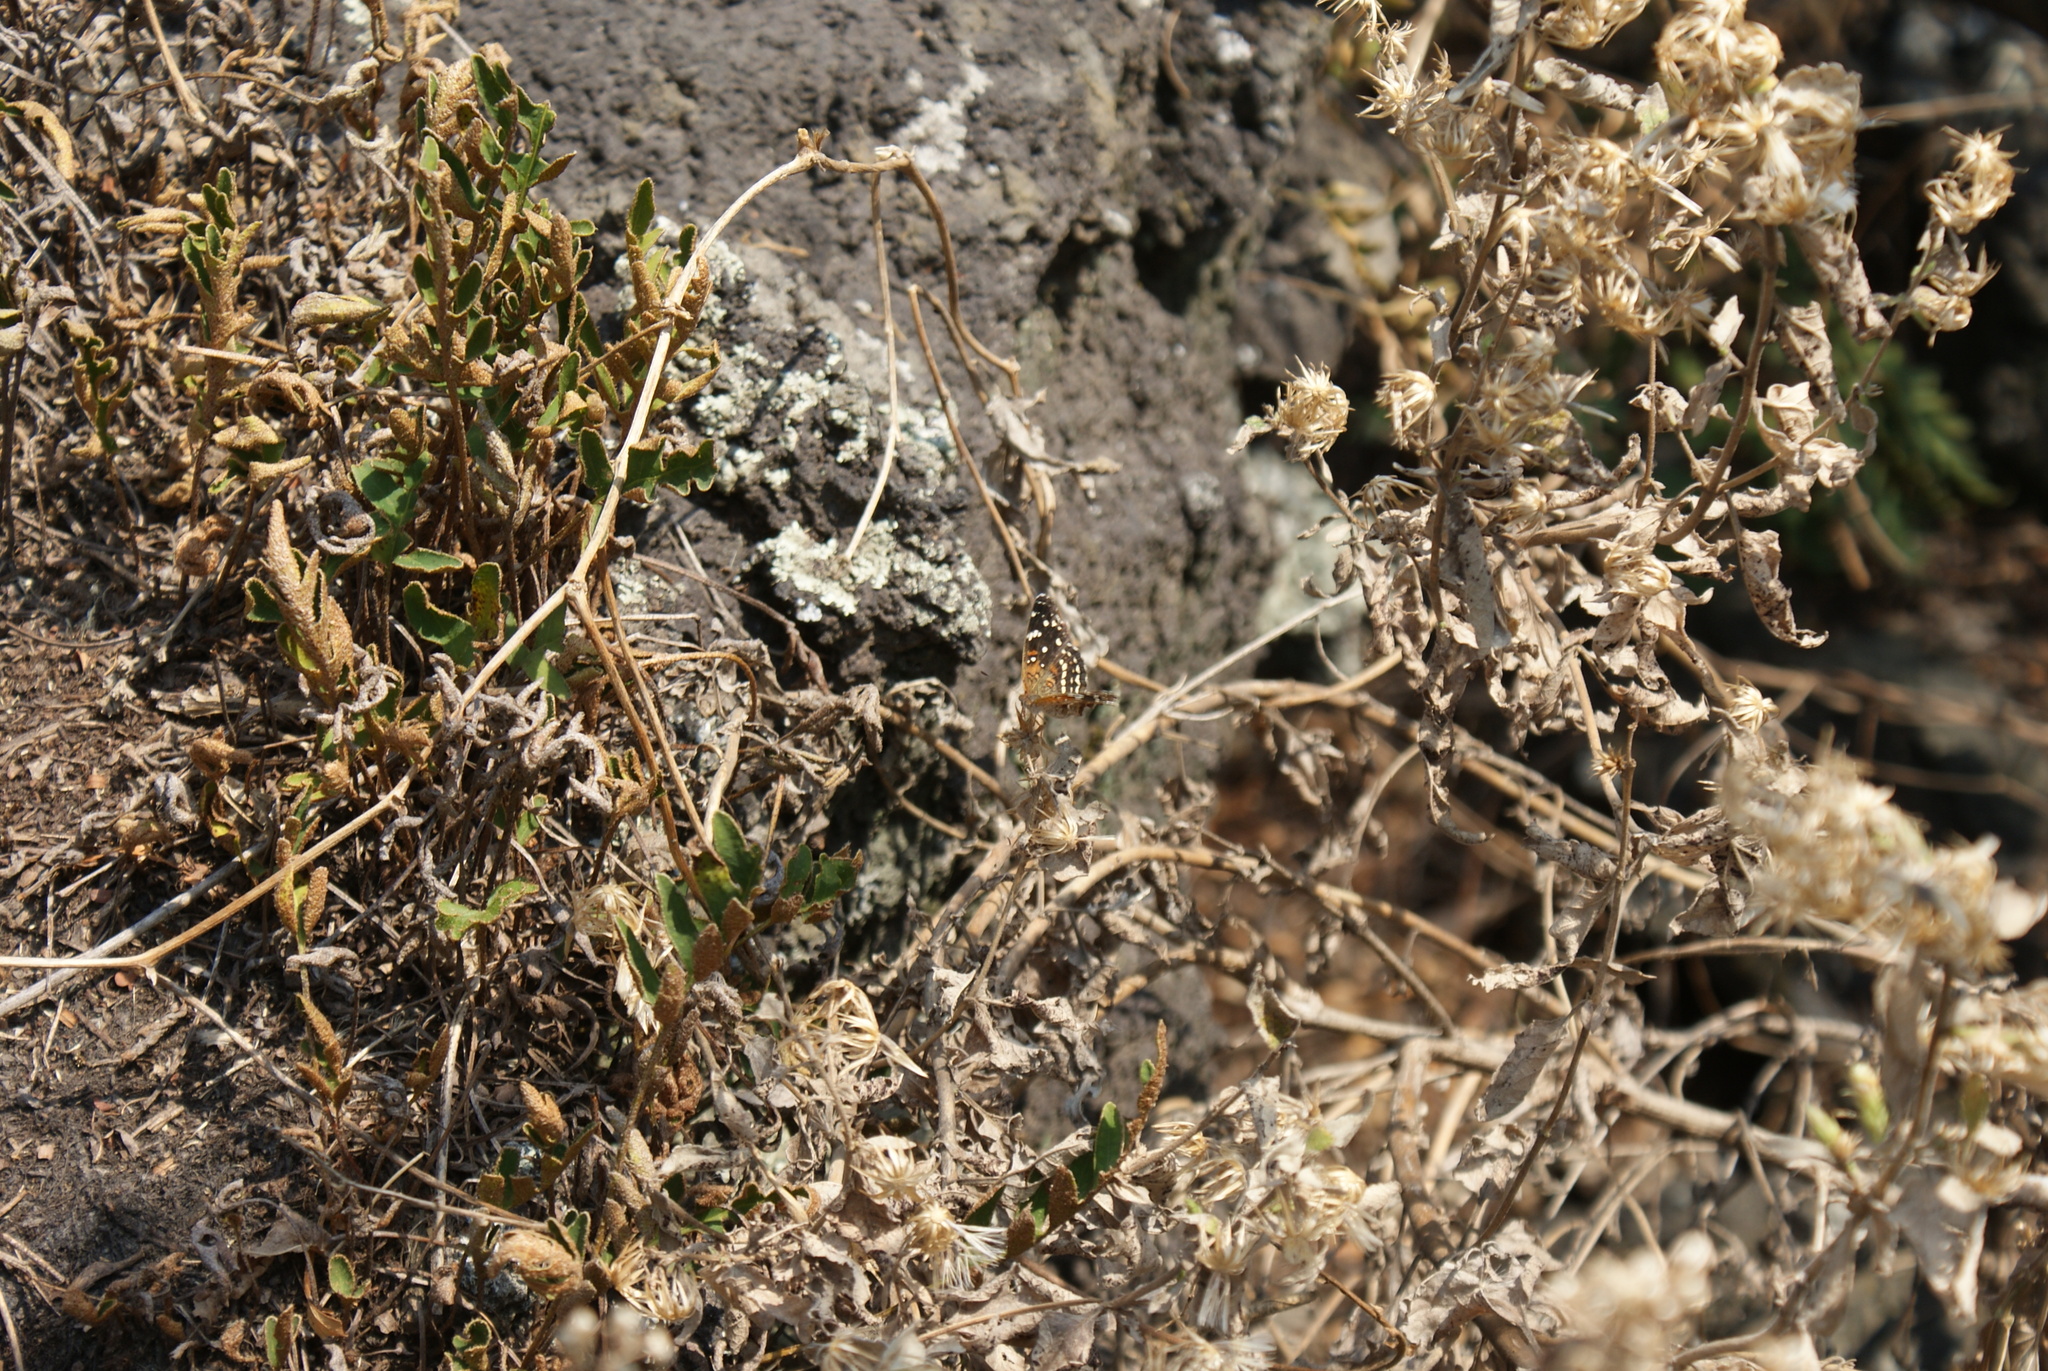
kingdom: Animalia
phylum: Arthropoda
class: Insecta
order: Lepidoptera
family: Nymphalidae
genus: Anthanassa
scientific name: Anthanassa texana
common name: Texan crescent
